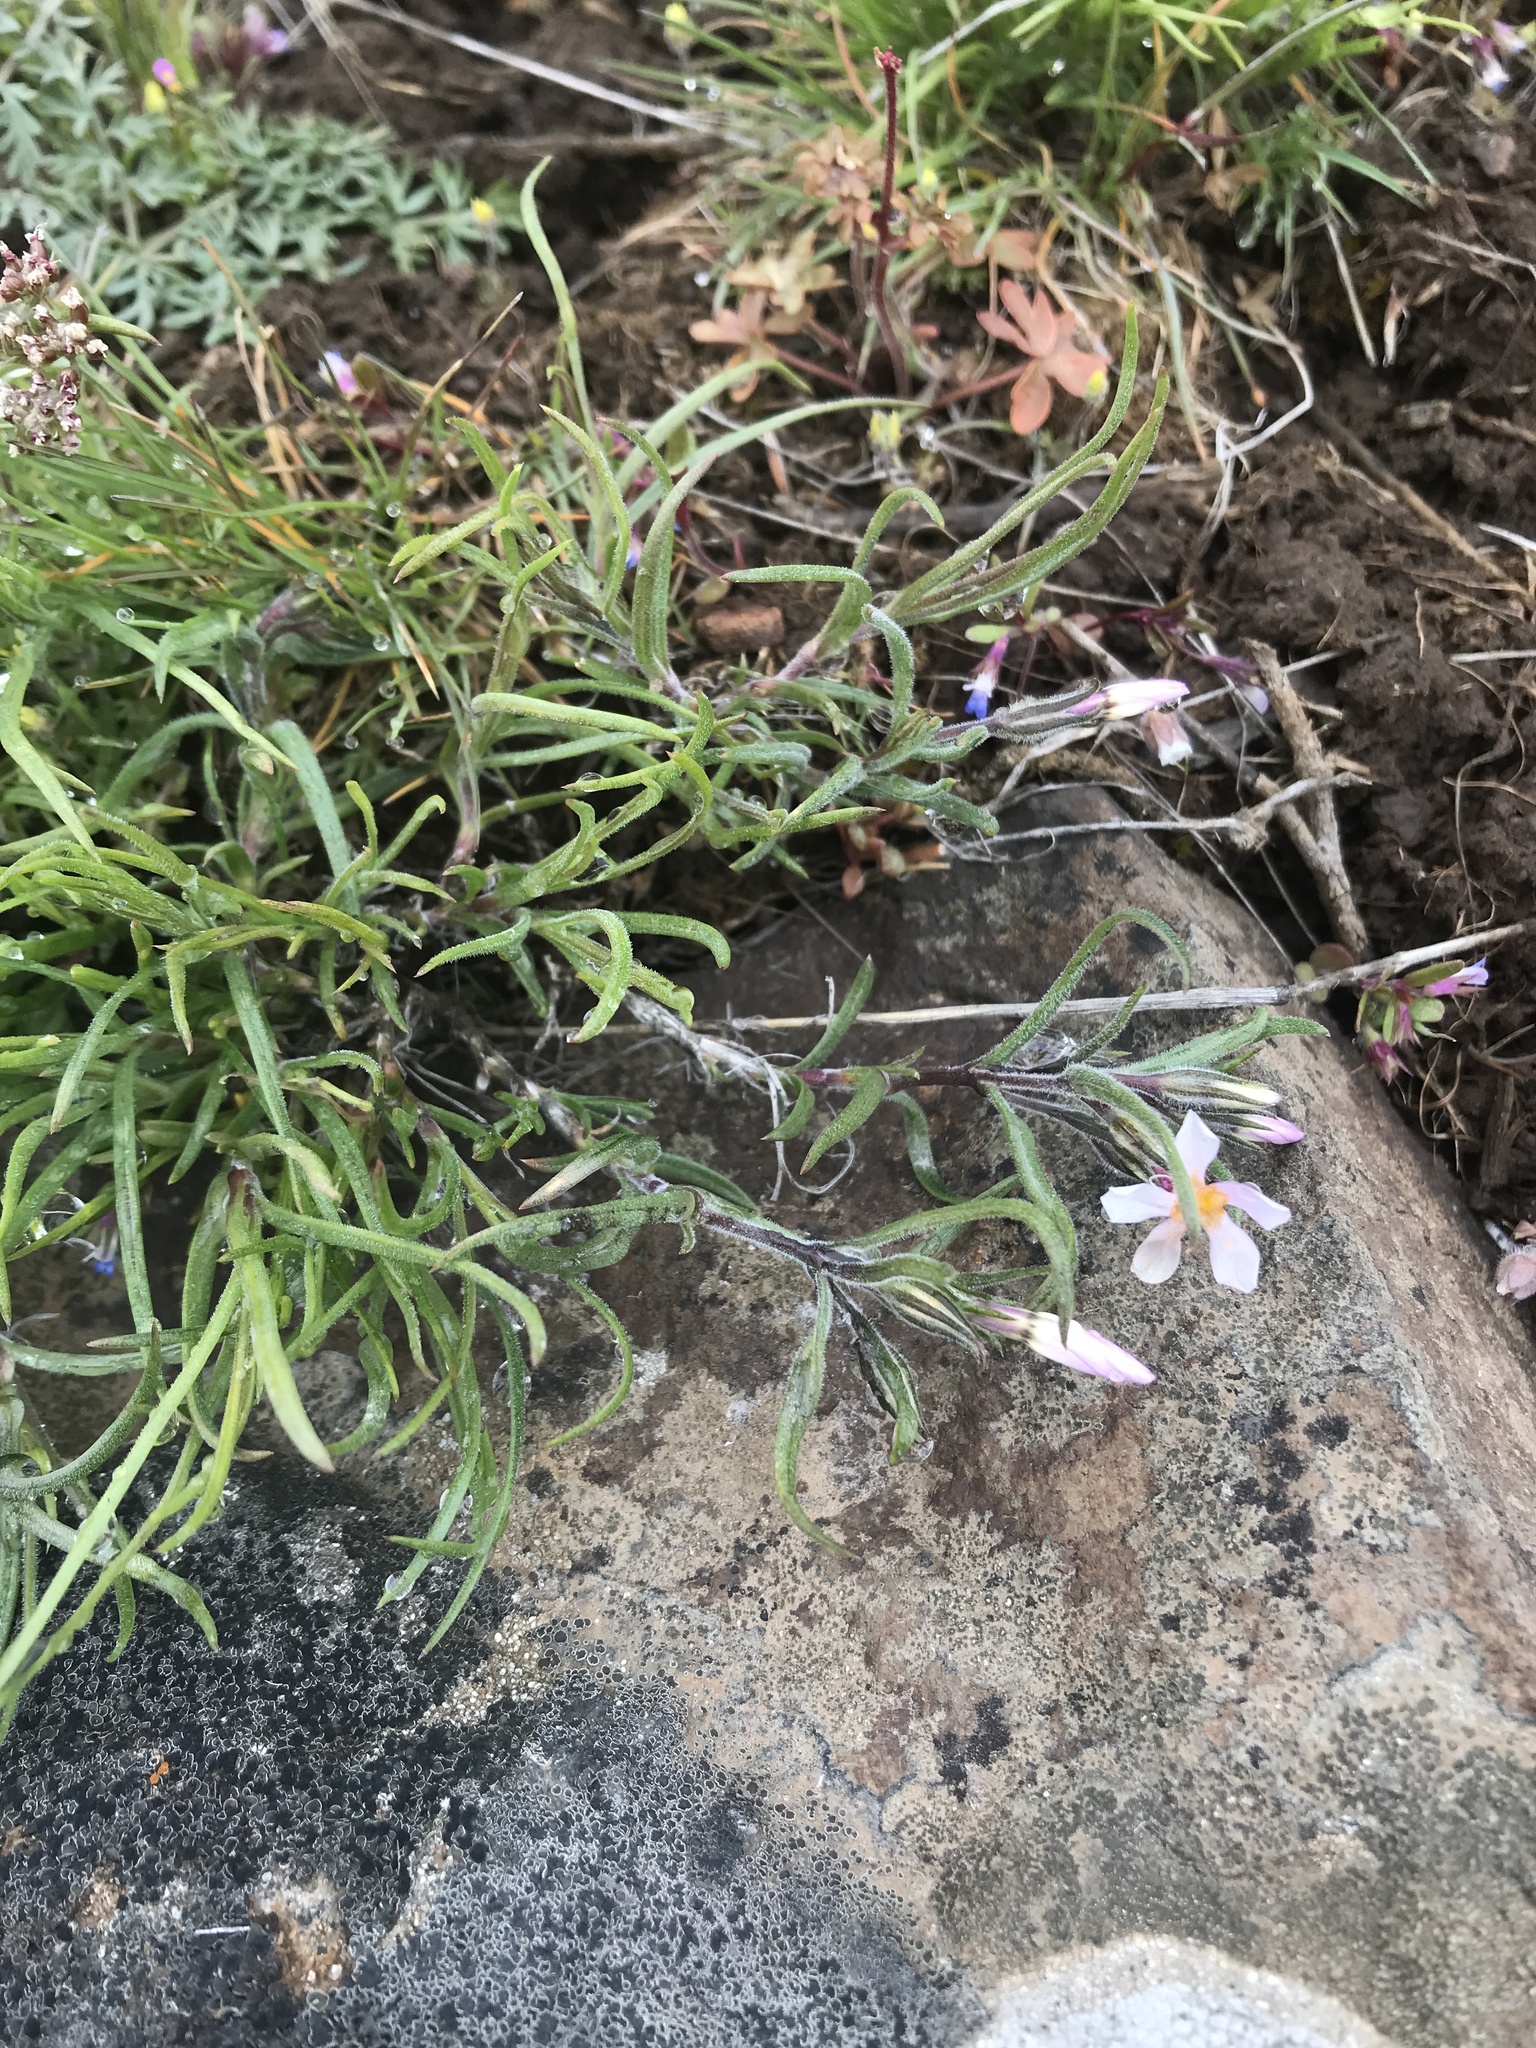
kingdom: Plantae
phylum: Tracheophyta
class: Magnoliopsida
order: Ericales
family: Polemoniaceae
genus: Phlox
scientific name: Phlox longifolia
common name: Longleaf phlox
